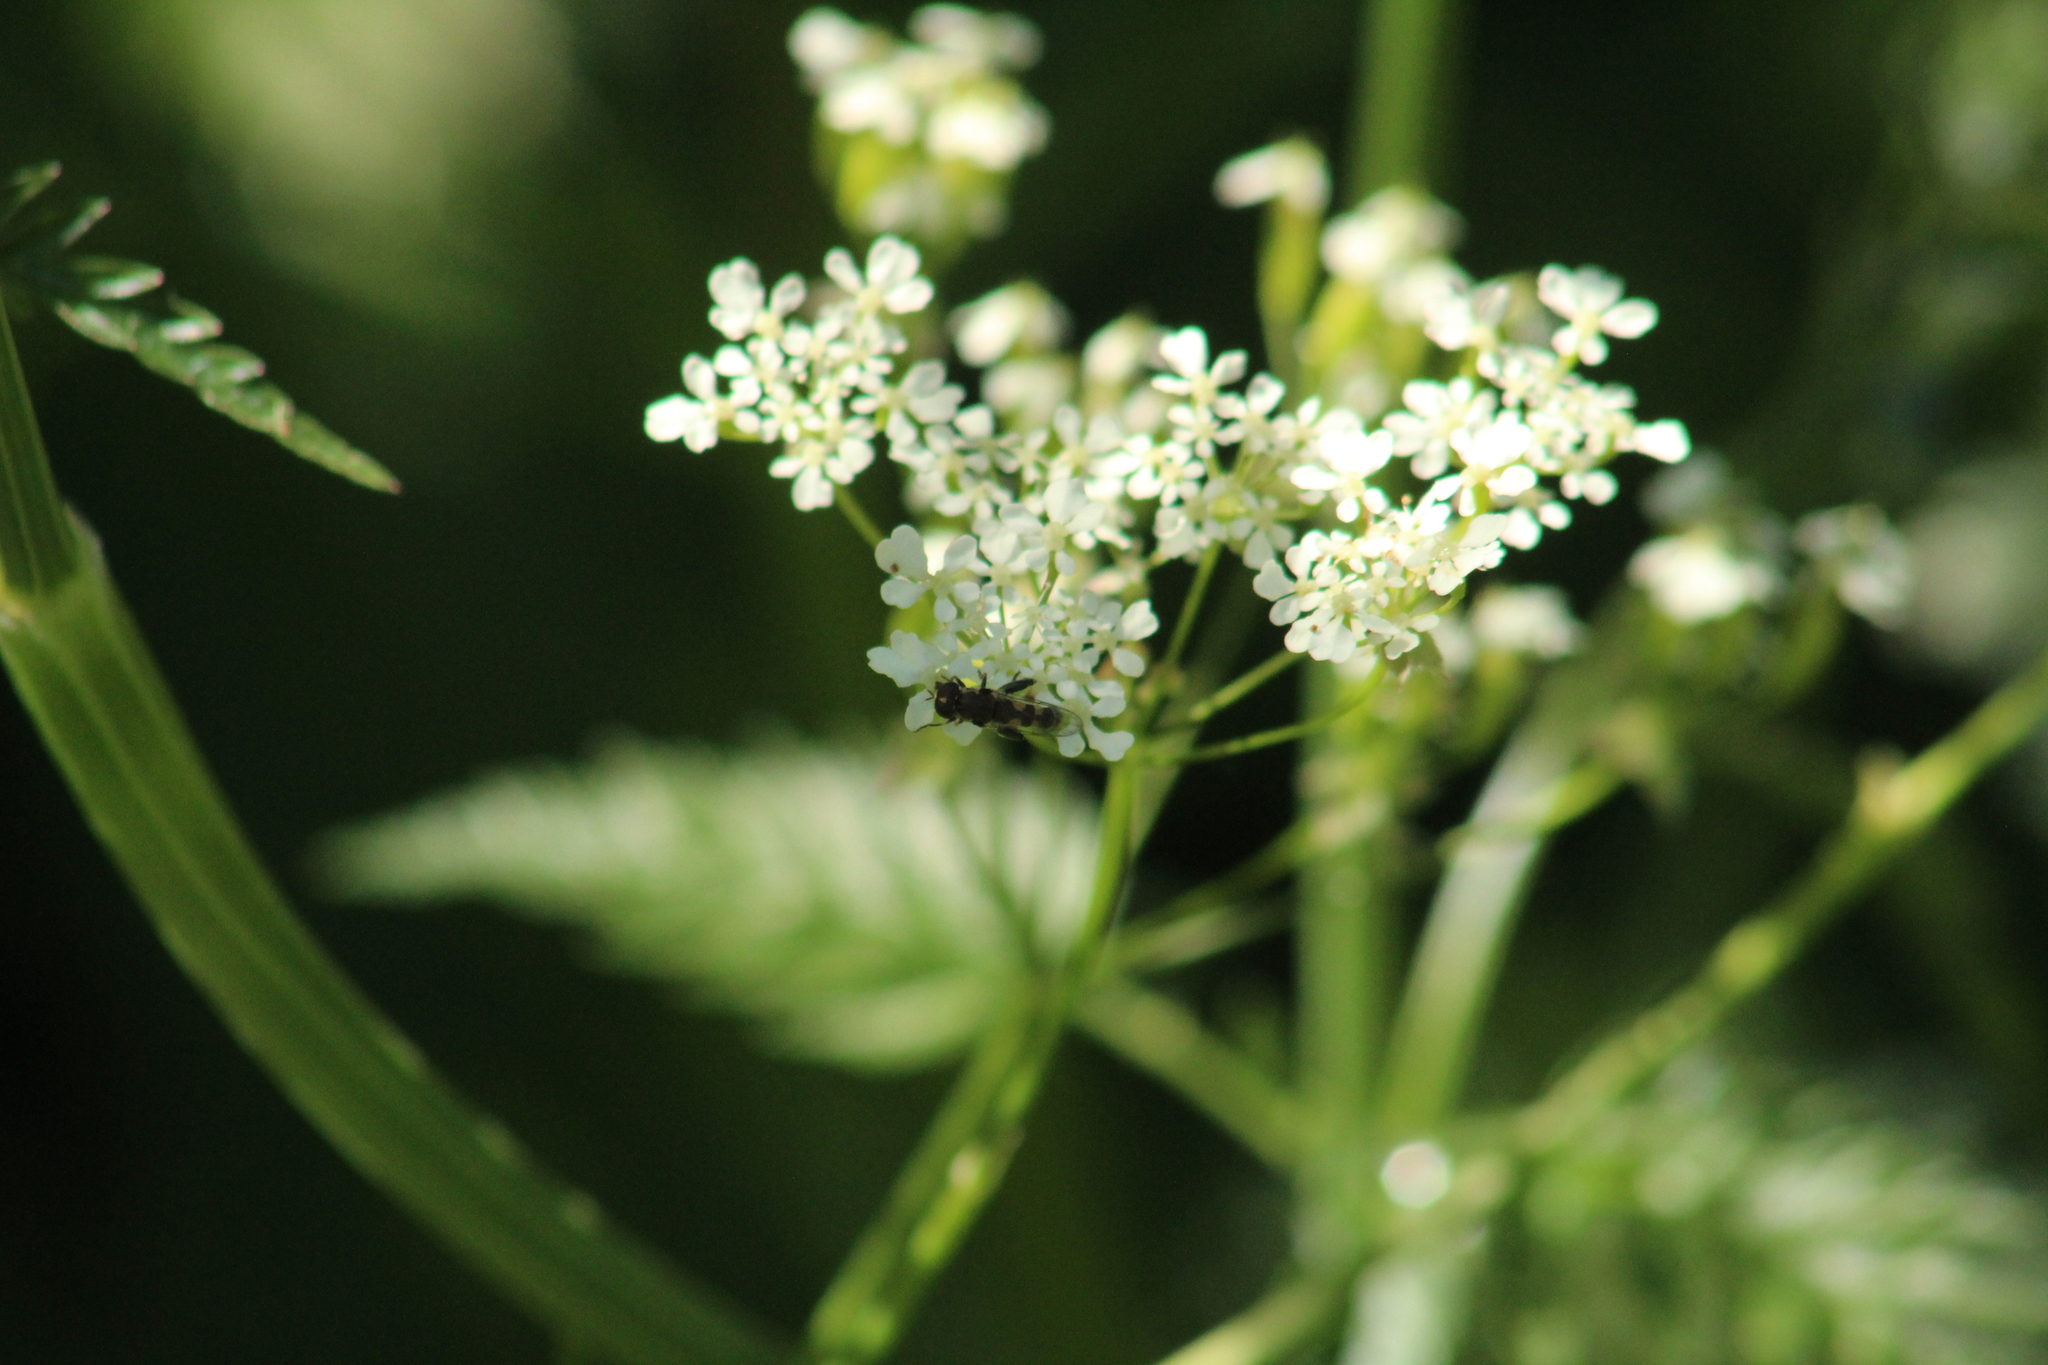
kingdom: Animalia
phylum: Arthropoda
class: Insecta
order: Diptera
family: Syrphidae
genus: Syritta
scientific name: Syritta pipiens
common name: Hover fly
